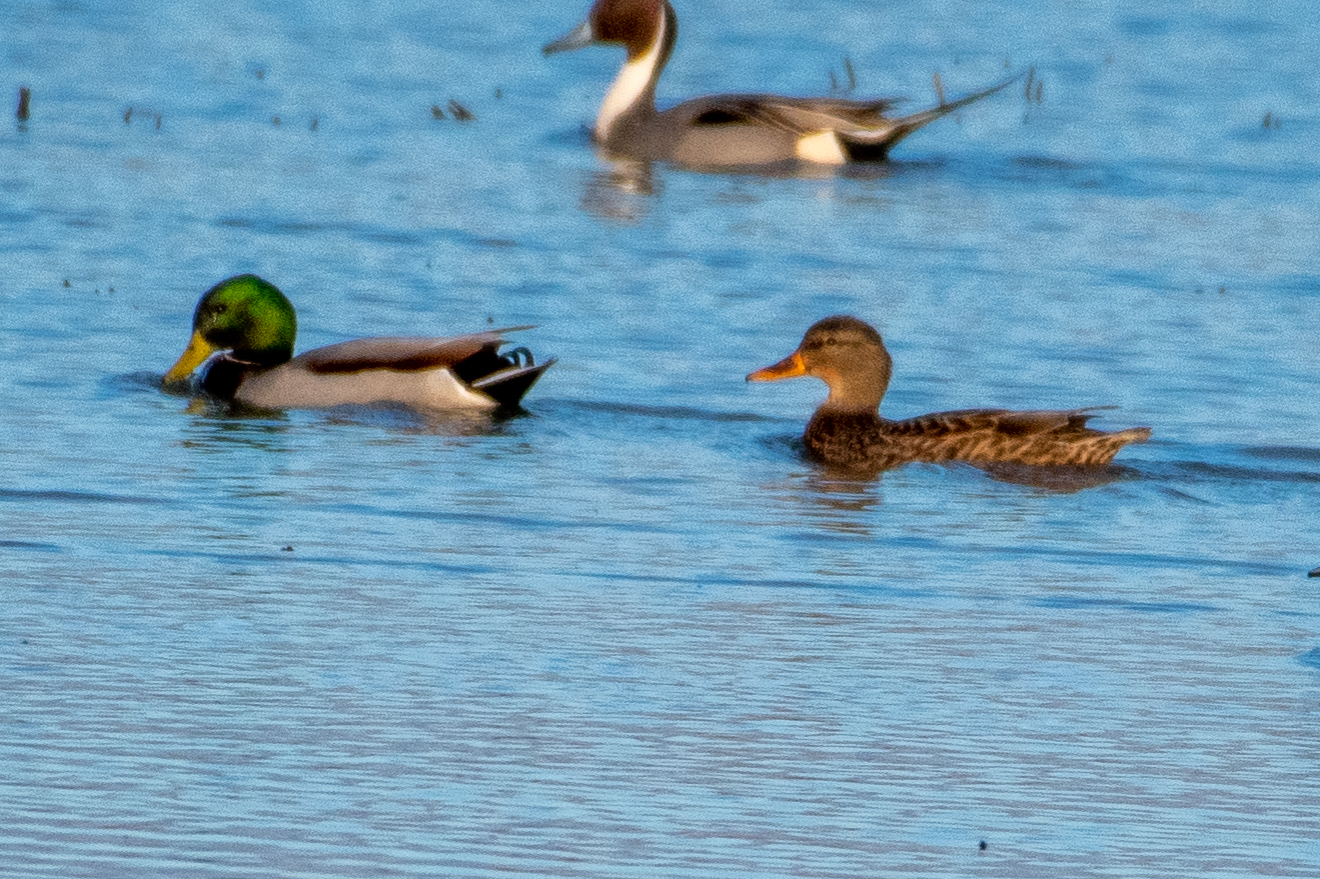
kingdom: Animalia
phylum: Chordata
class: Aves
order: Anseriformes
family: Anatidae
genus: Anas
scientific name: Anas platyrhynchos
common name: Mallard
